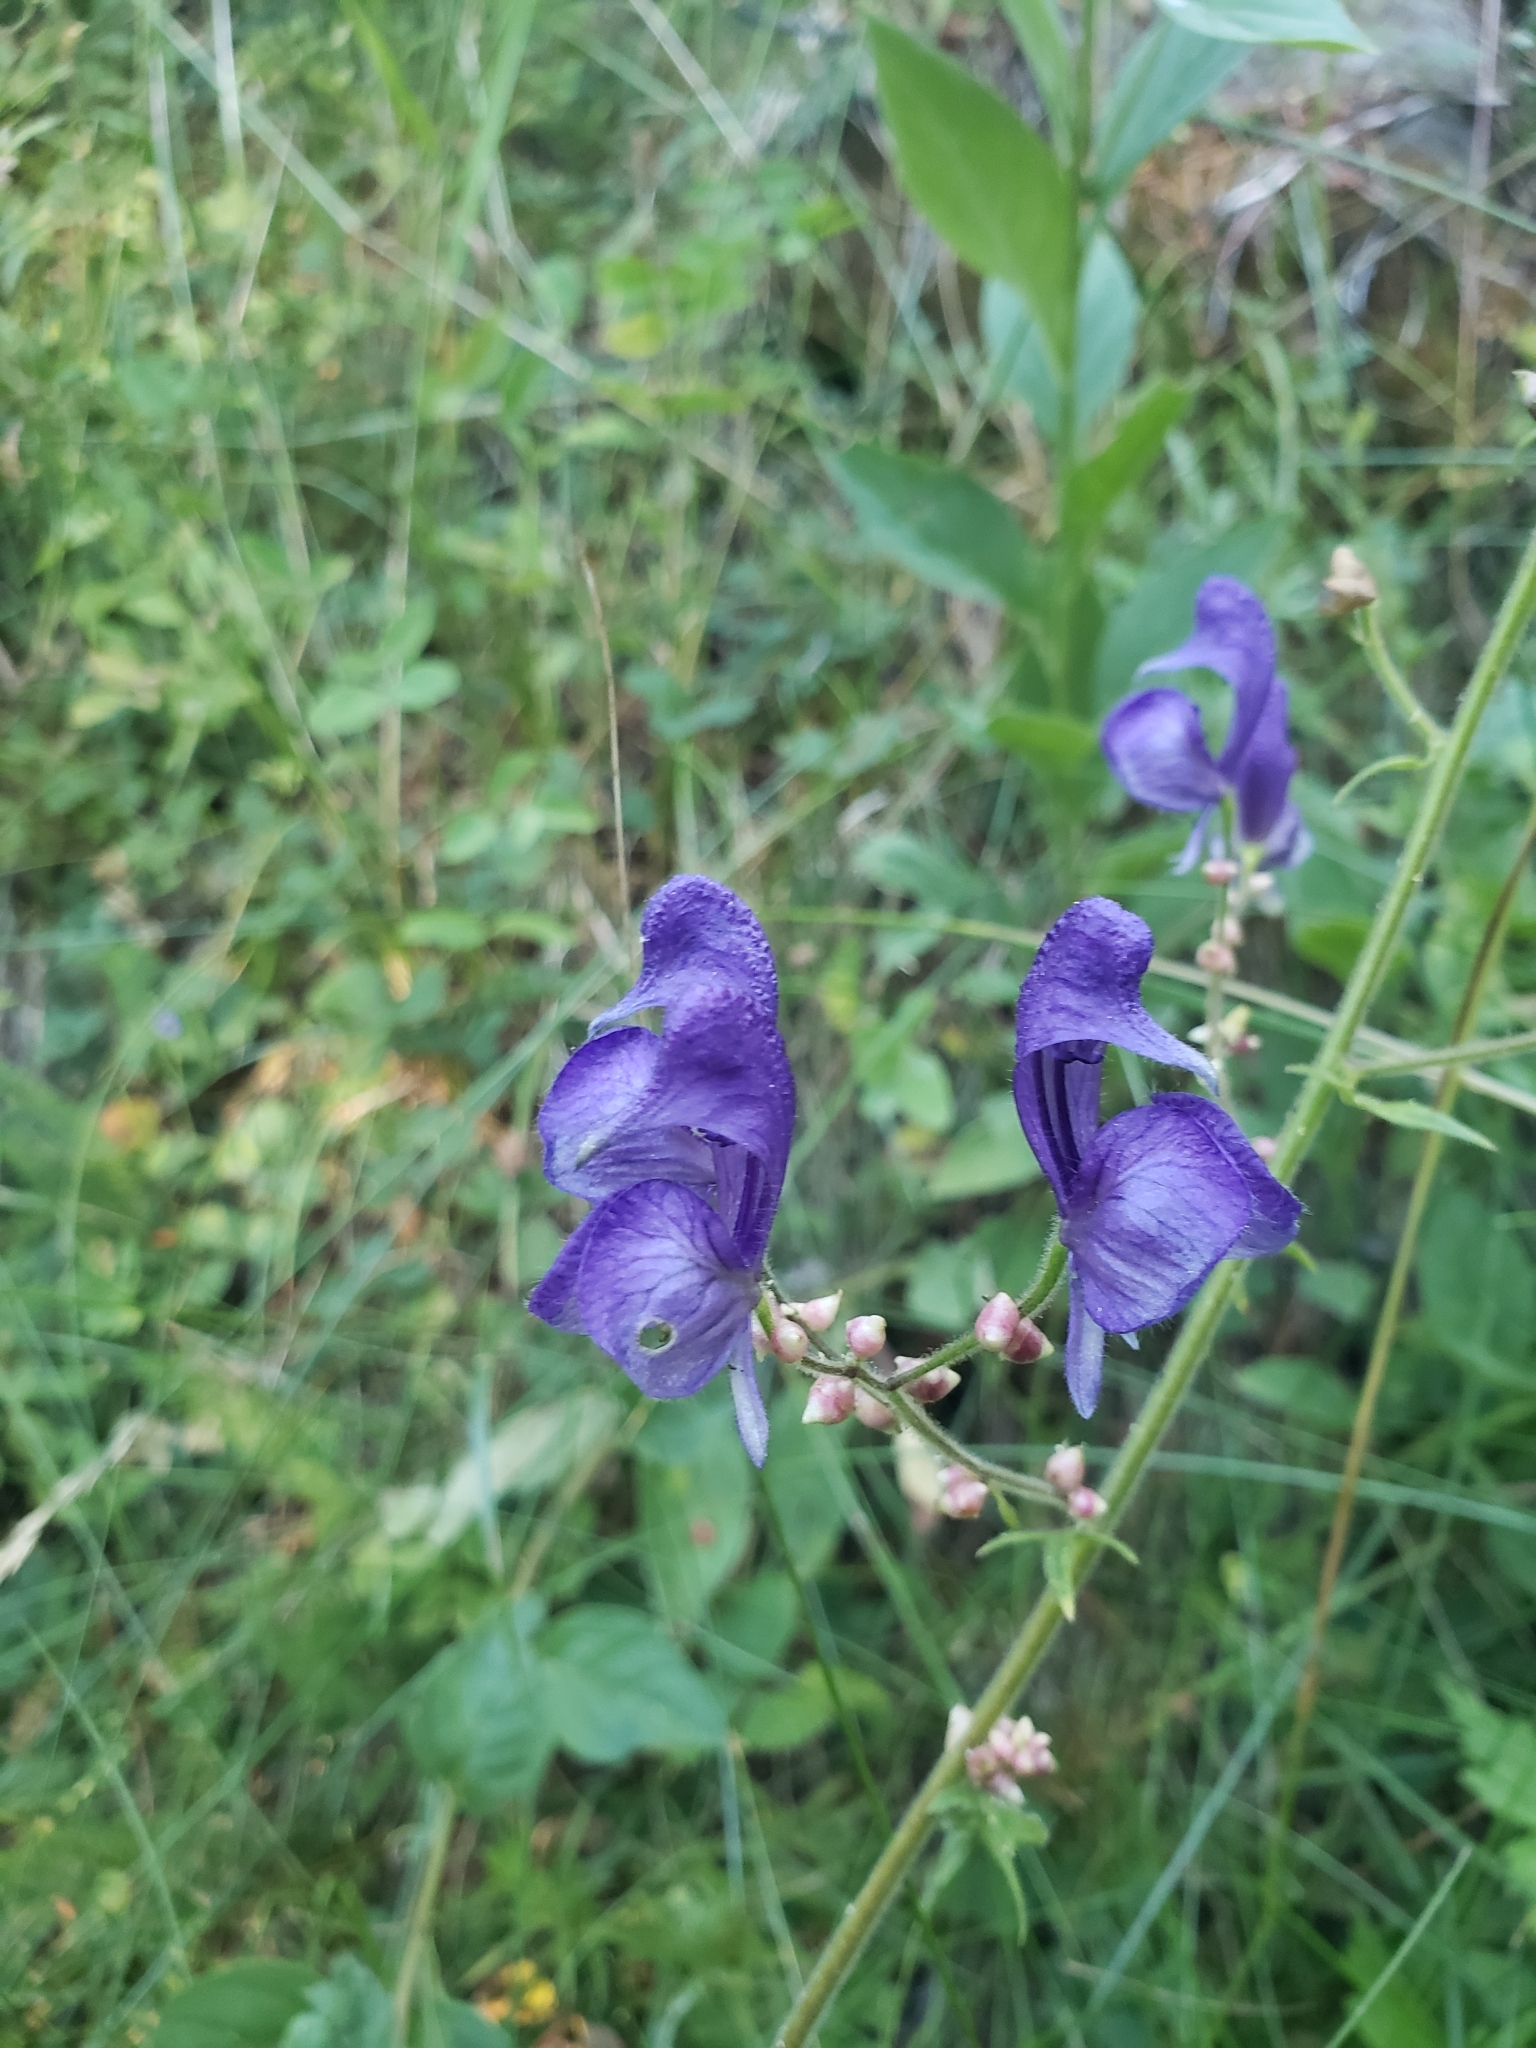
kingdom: Plantae
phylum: Tracheophyta
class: Magnoliopsida
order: Ranunculales
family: Ranunculaceae
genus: Aconitum
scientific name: Aconitum columbianum
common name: Columbia aconite
